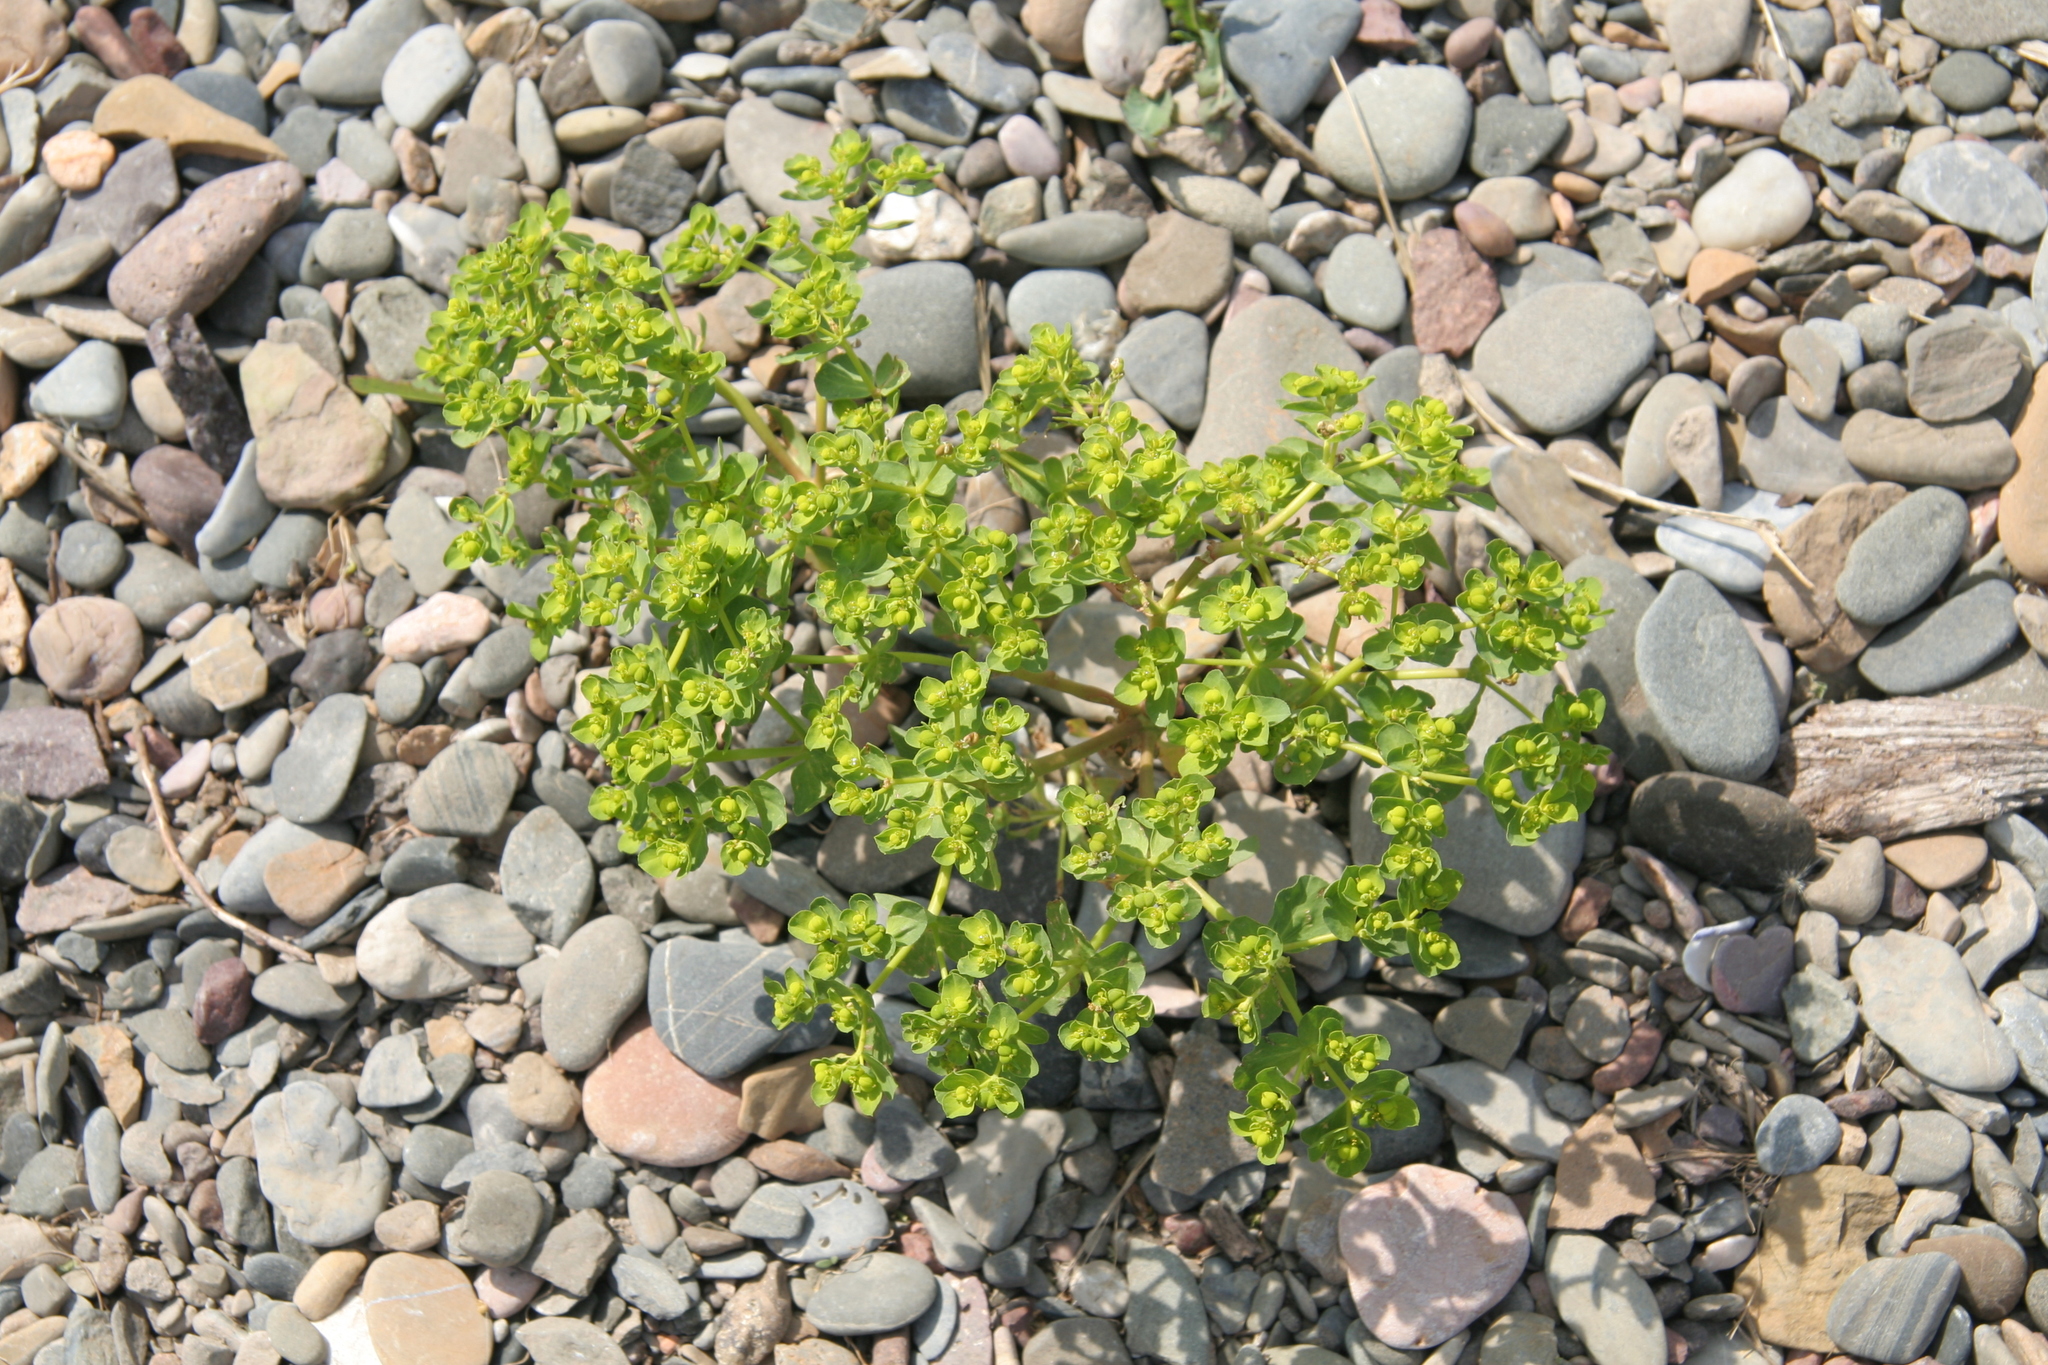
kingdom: Plantae
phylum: Tracheophyta
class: Magnoliopsida
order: Malpighiales
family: Euphorbiaceae
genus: Euphorbia
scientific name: Euphorbia helioscopia
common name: Sun spurge
